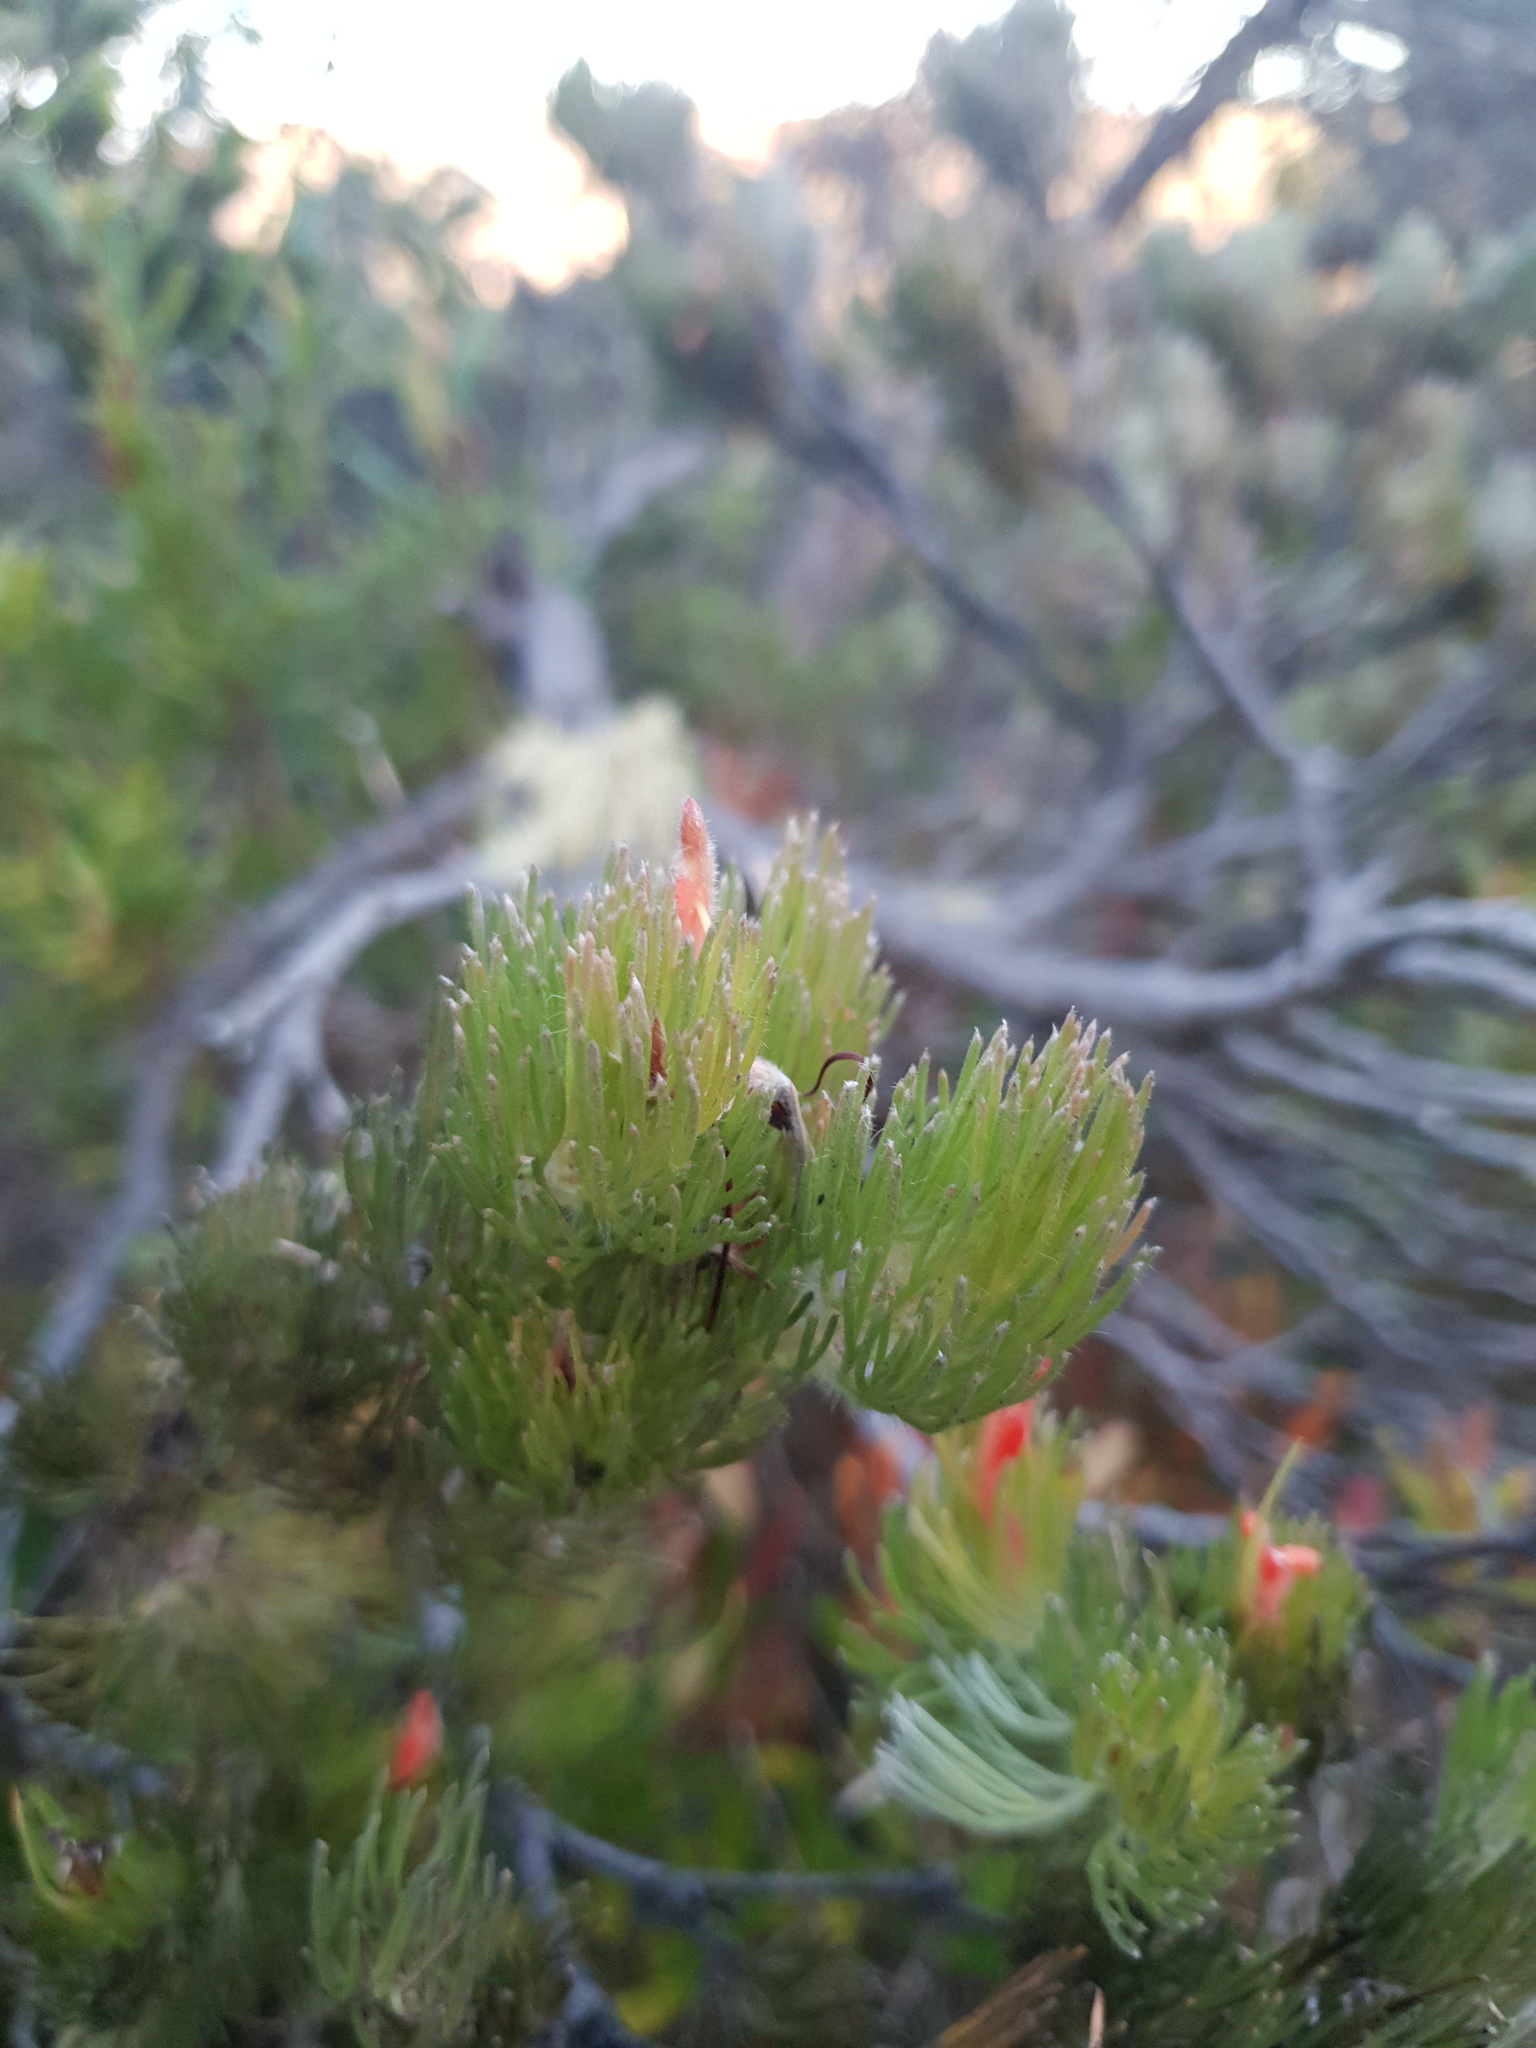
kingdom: Plantae
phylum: Tracheophyta
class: Magnoliopsida
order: Proteales
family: Proteaceae
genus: Adenanthos
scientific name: Adenanthos sericeus
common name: Coastal woollybush
